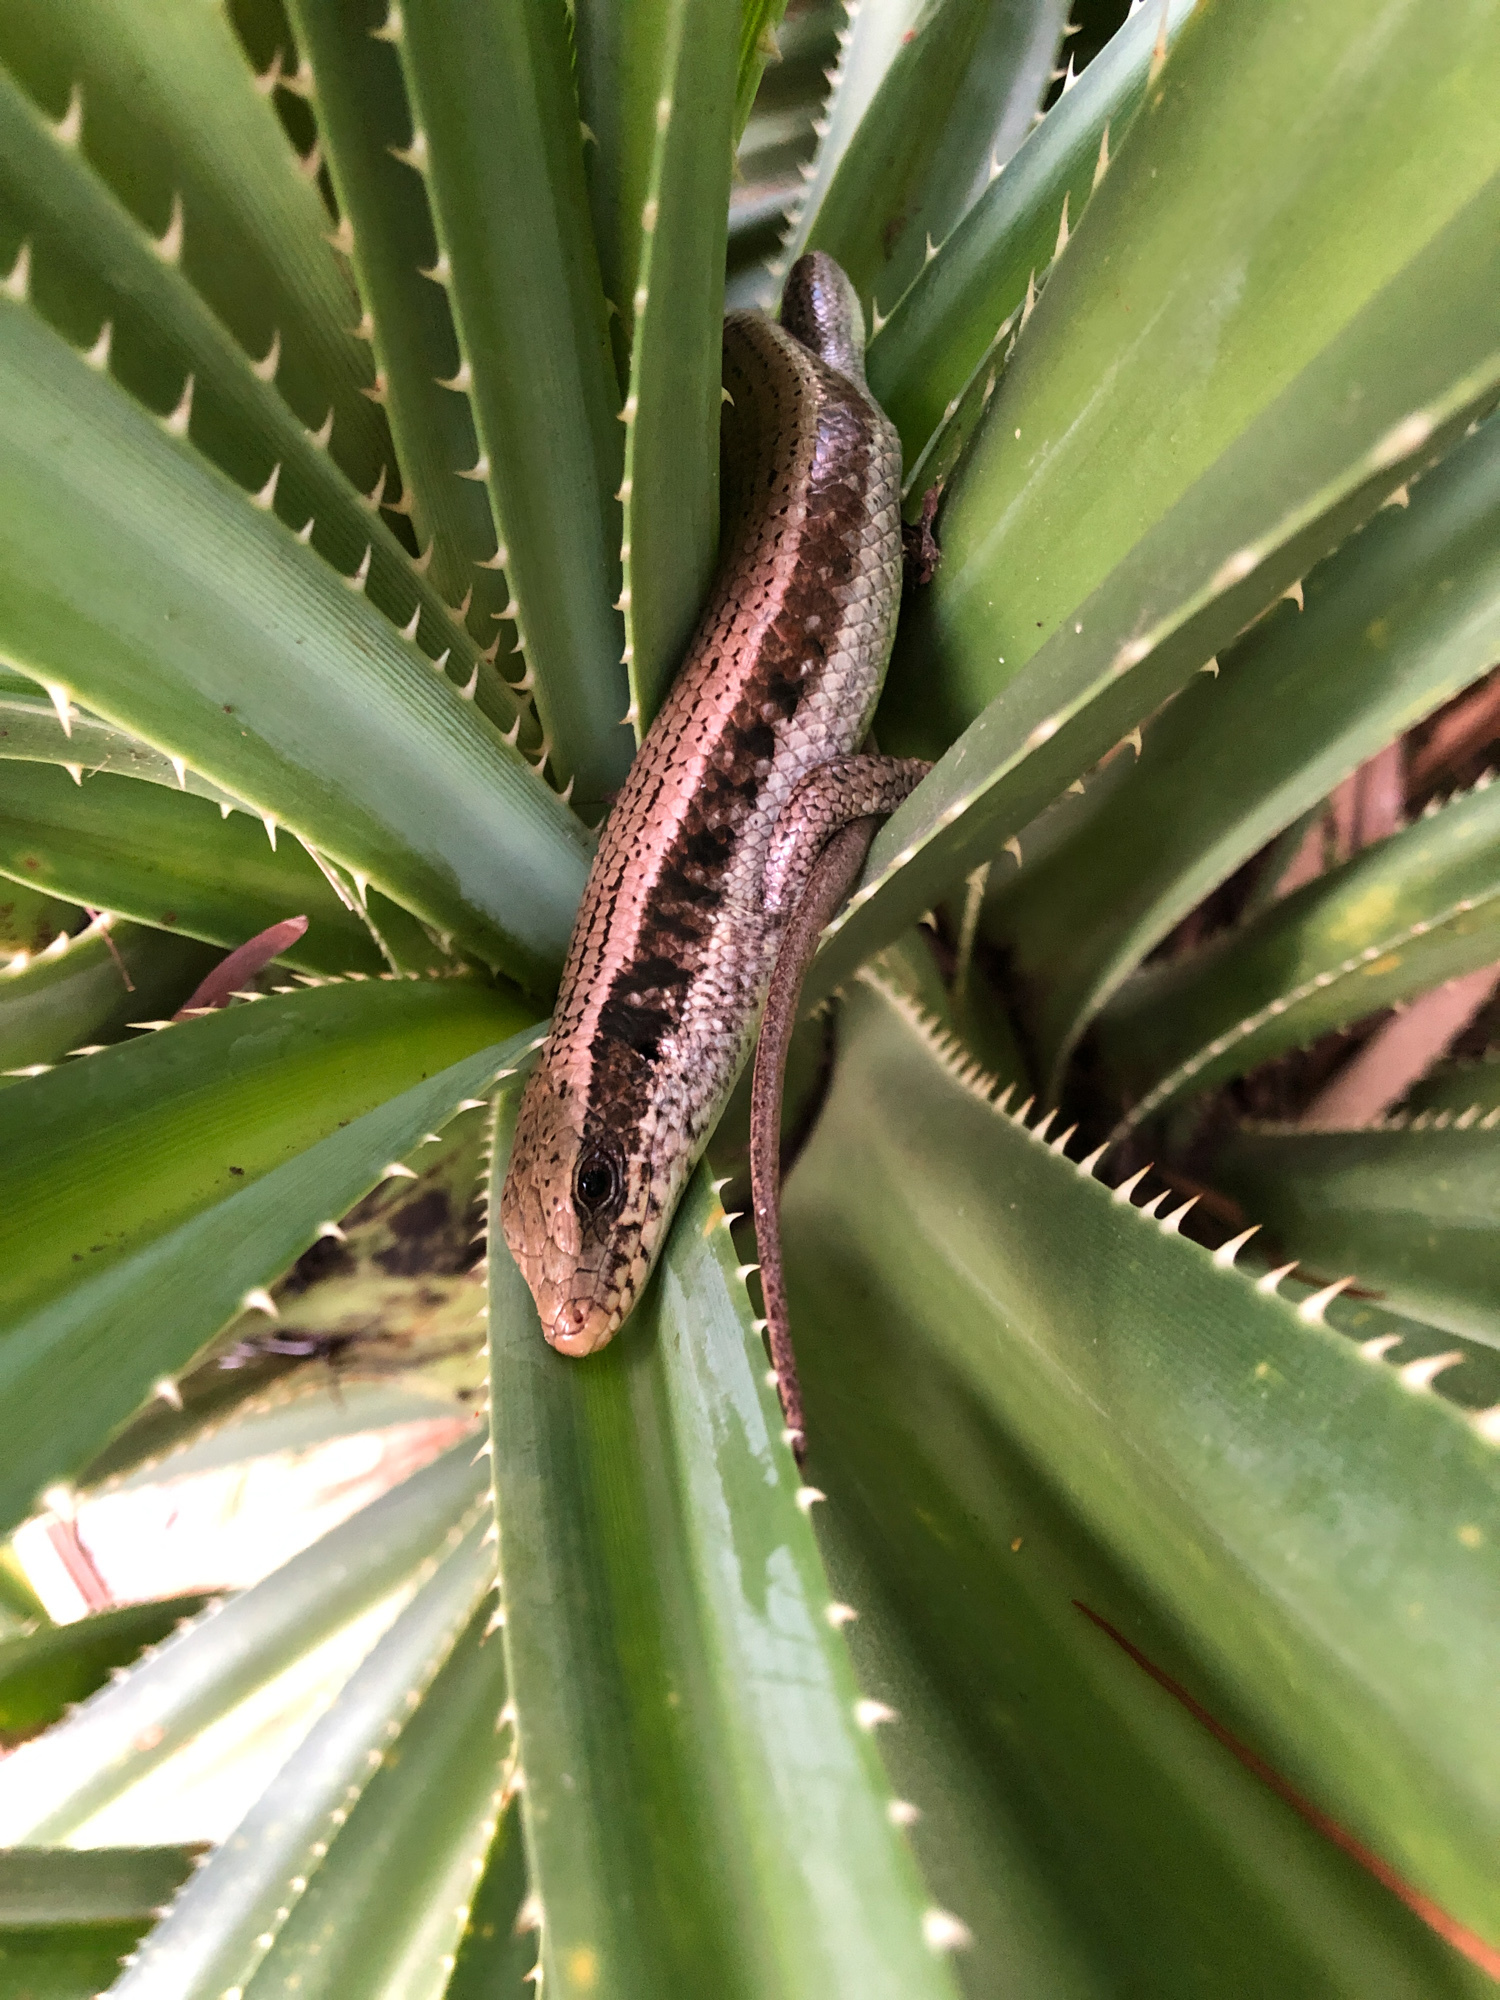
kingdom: Animalia
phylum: Chordata
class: Squamata
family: Scincidae
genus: Eutropis
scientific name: Eutropis longicaudata
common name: Long-tailed sun skink
